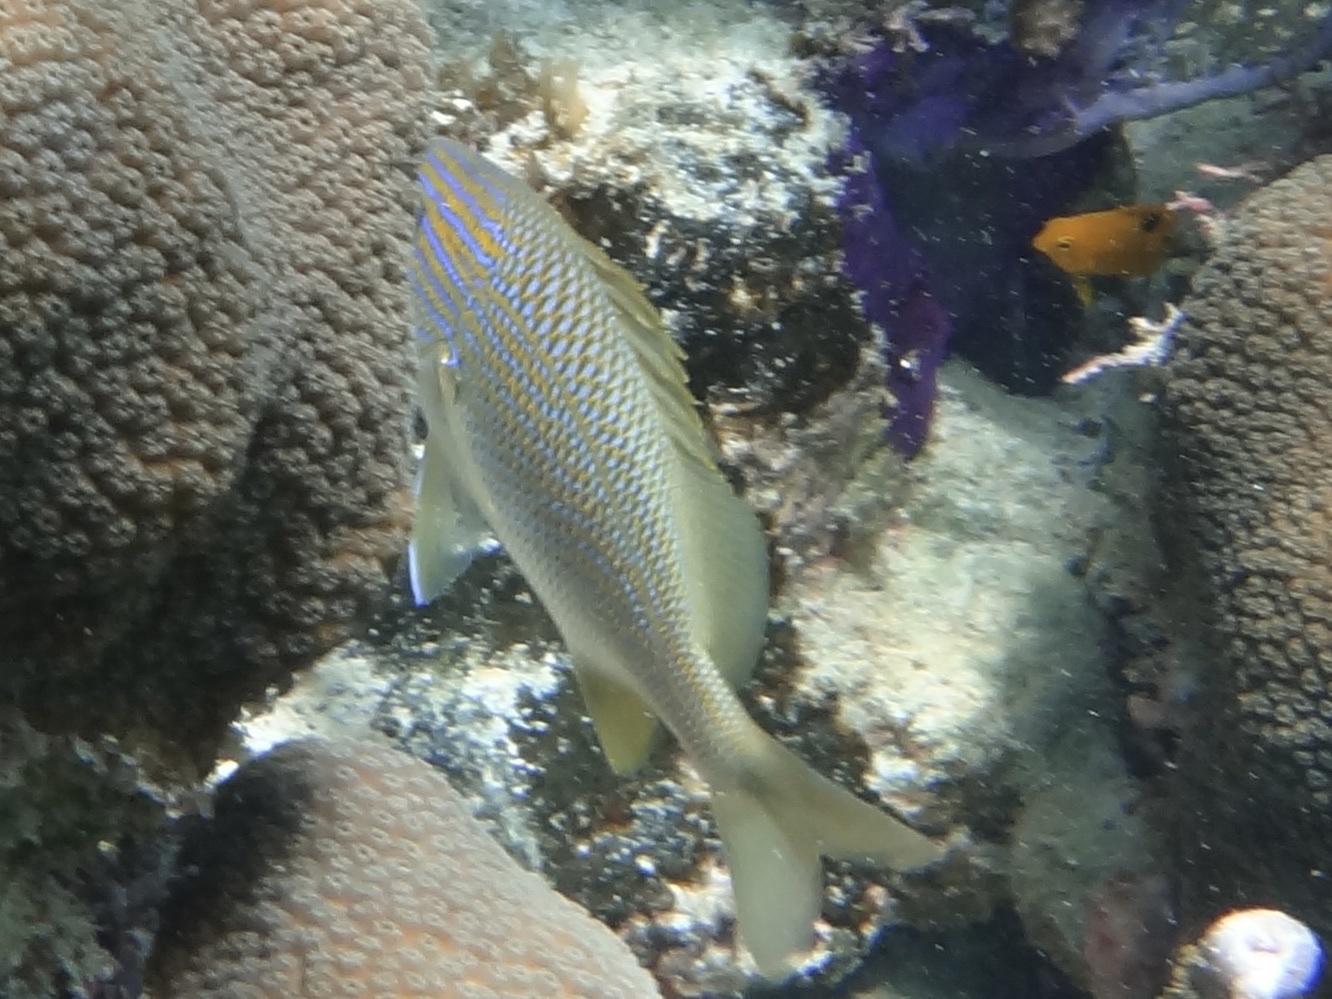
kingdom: Animalia
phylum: Chordata
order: Perciformes
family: Haemulidae
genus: Haemulon
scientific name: Haemulon plumierii
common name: White grunt
